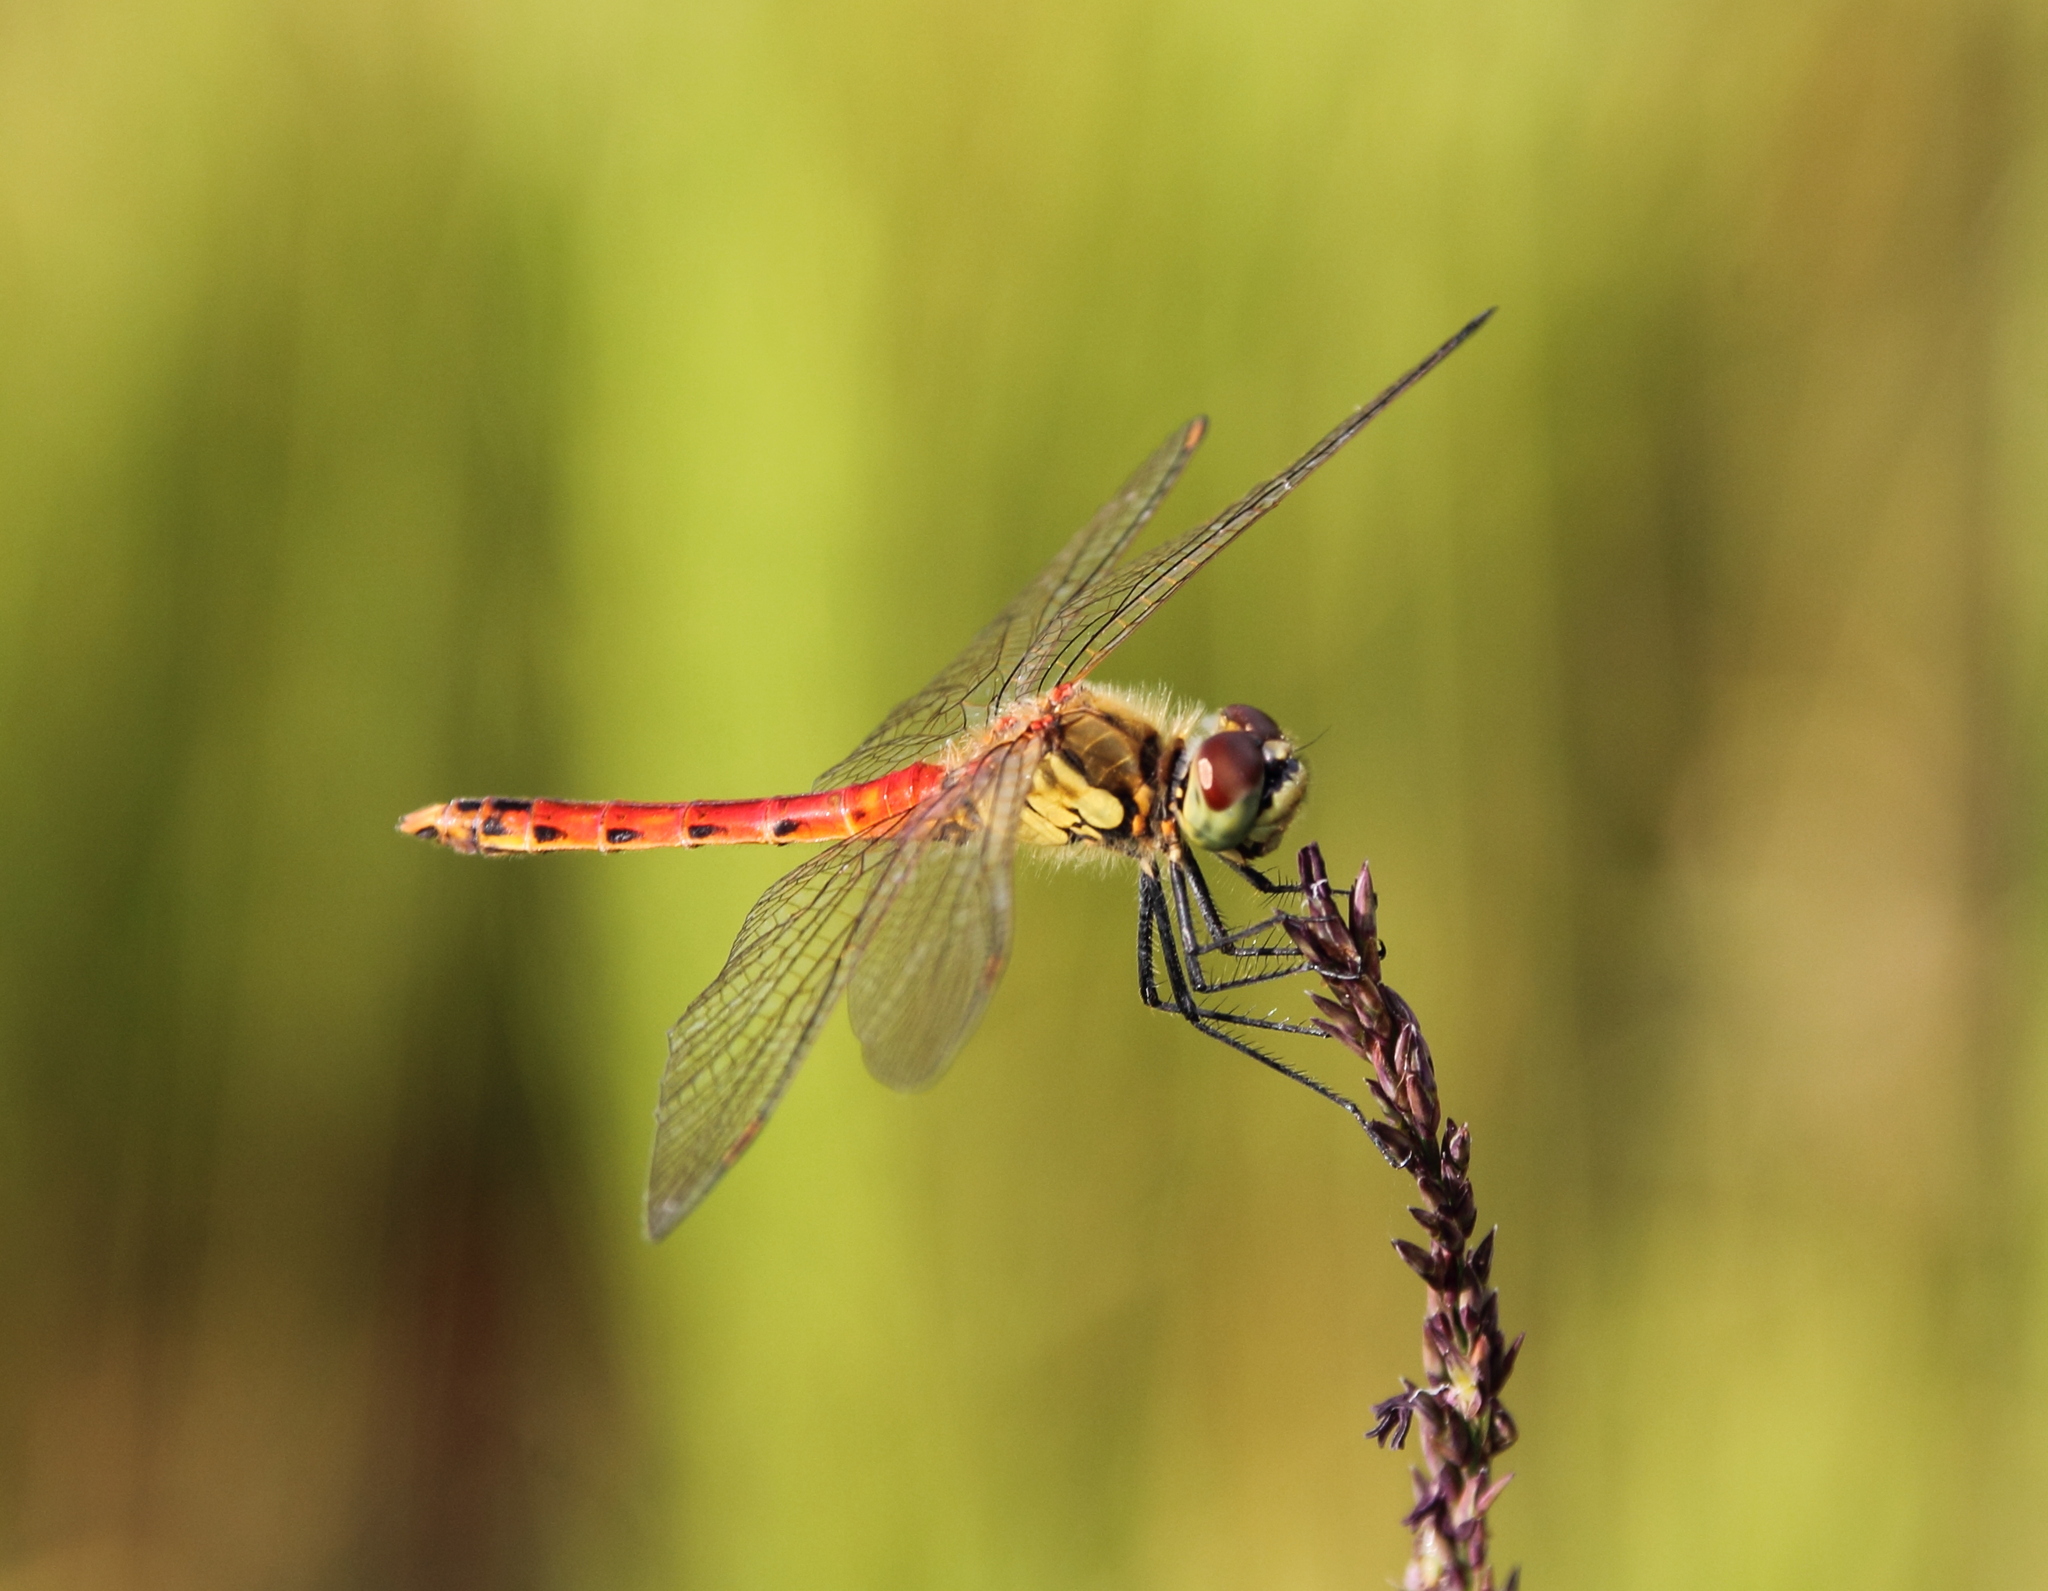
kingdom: Animalia
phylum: Arthropoda
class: Insecta
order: Odonata
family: Libellulidae
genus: Sympetrum
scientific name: Sympetrum depressiusculum
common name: Spotted darter
